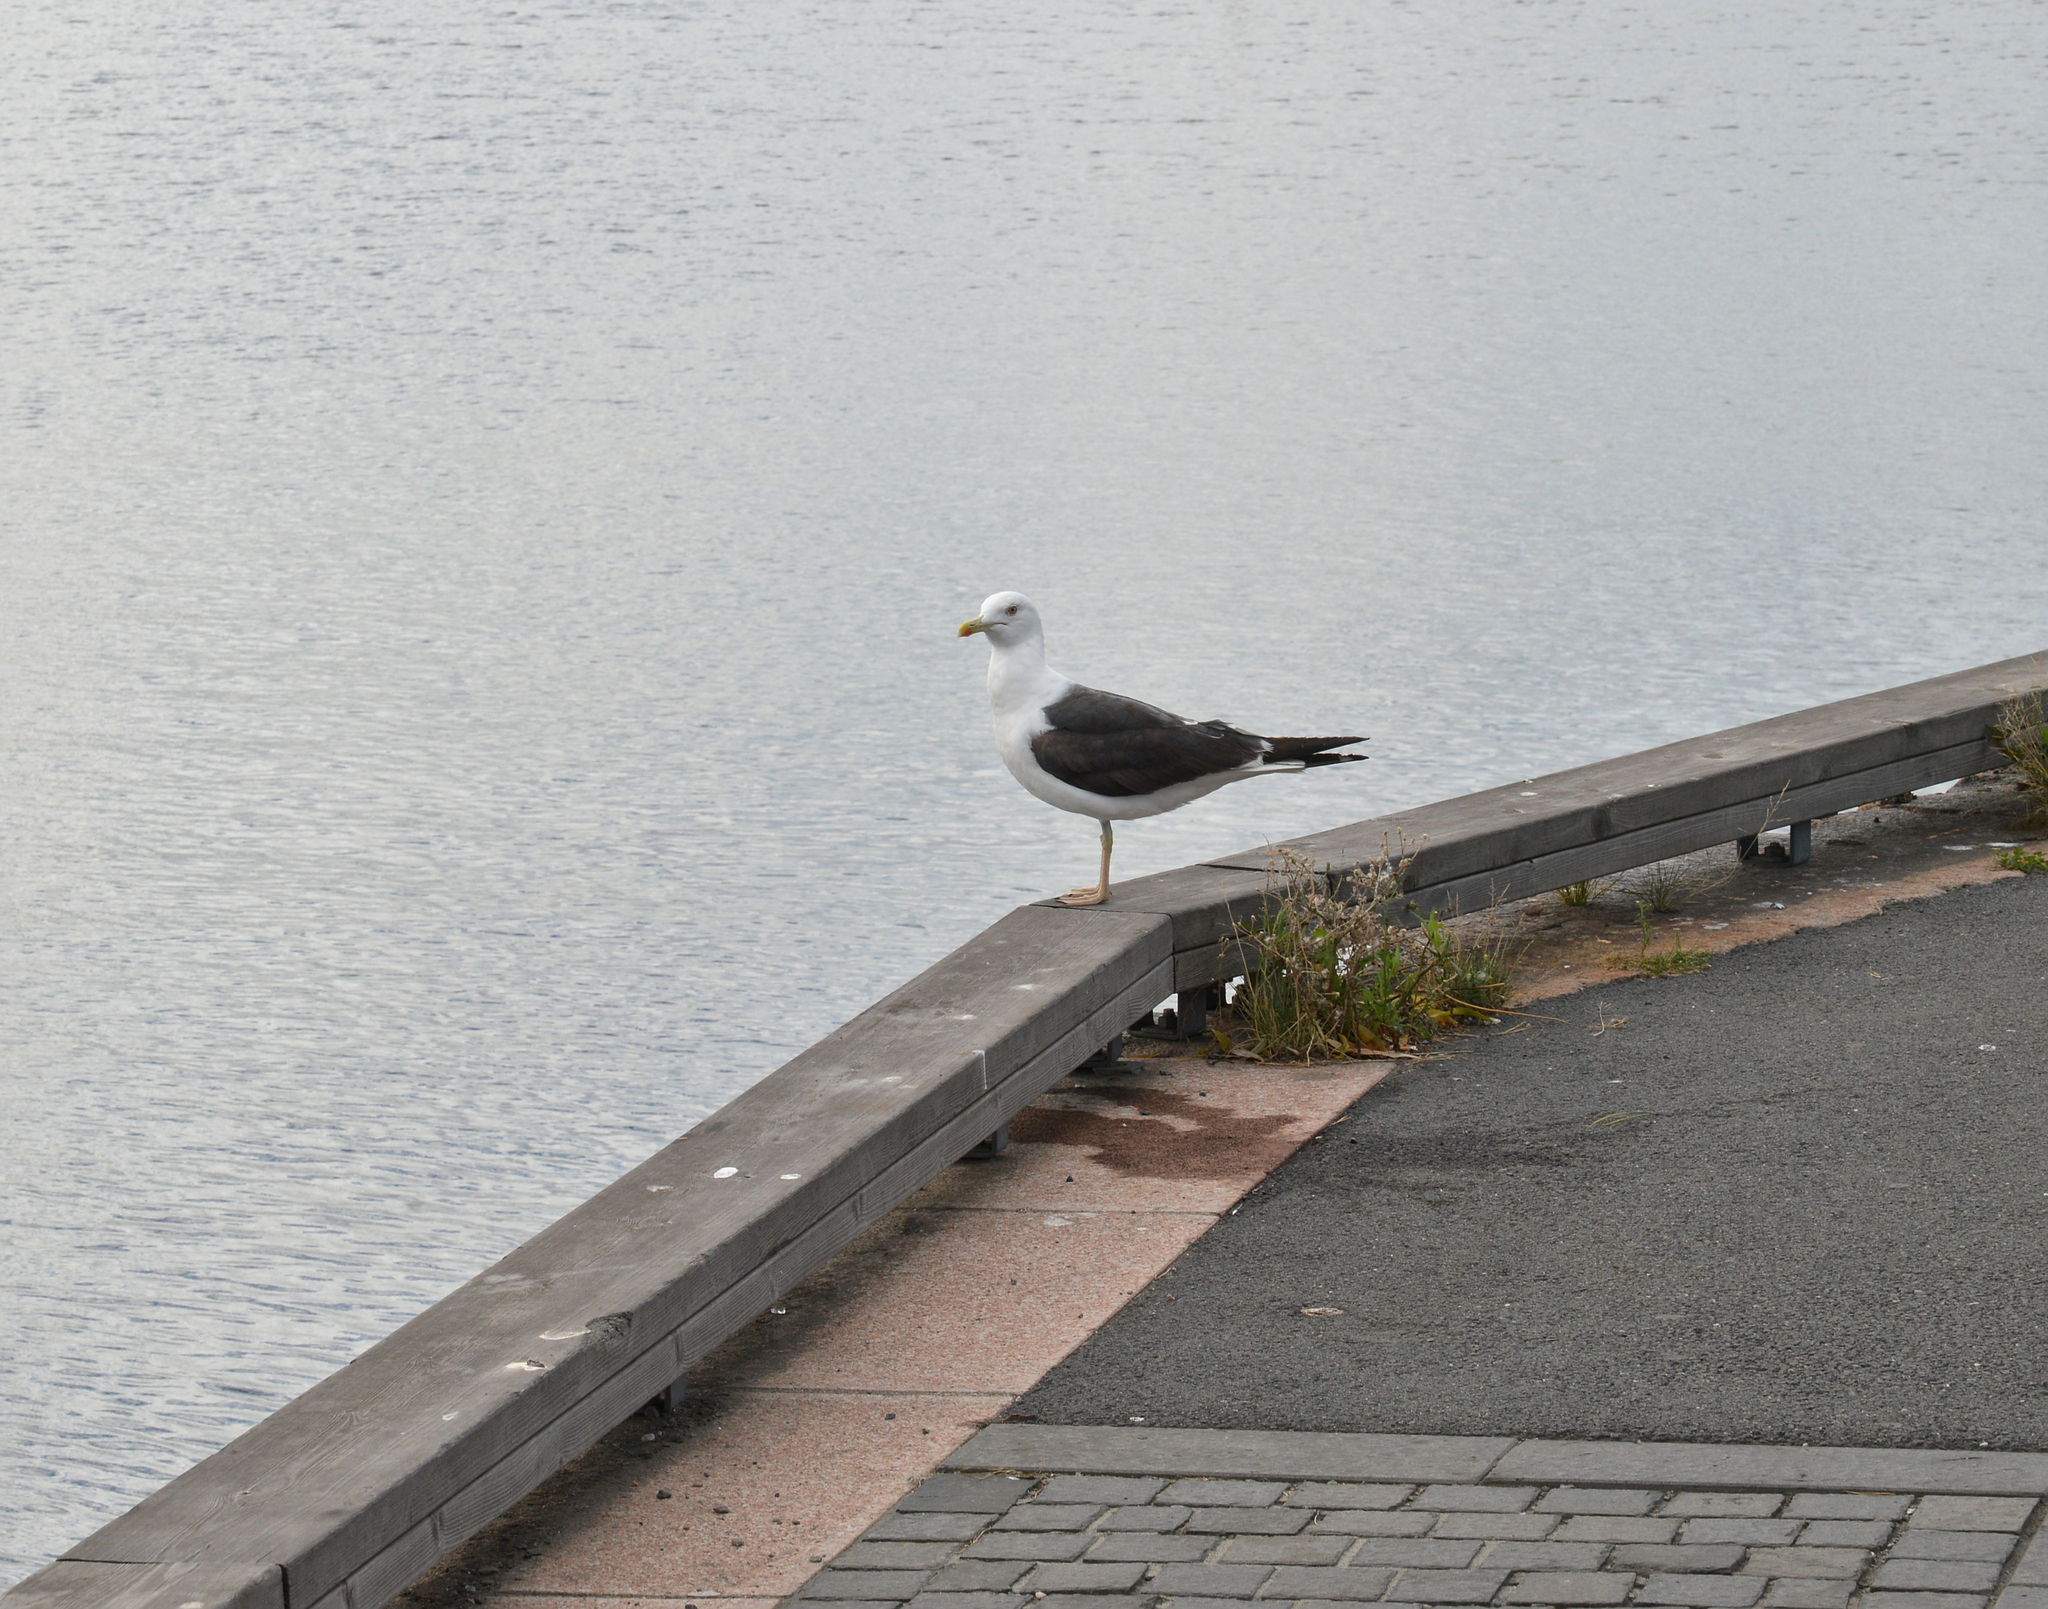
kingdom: Animalia
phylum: Chordata
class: Aves
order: Charadriiformes
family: Laridae
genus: Larus
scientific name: Larus fuscus
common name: Lesser black-backed gull
